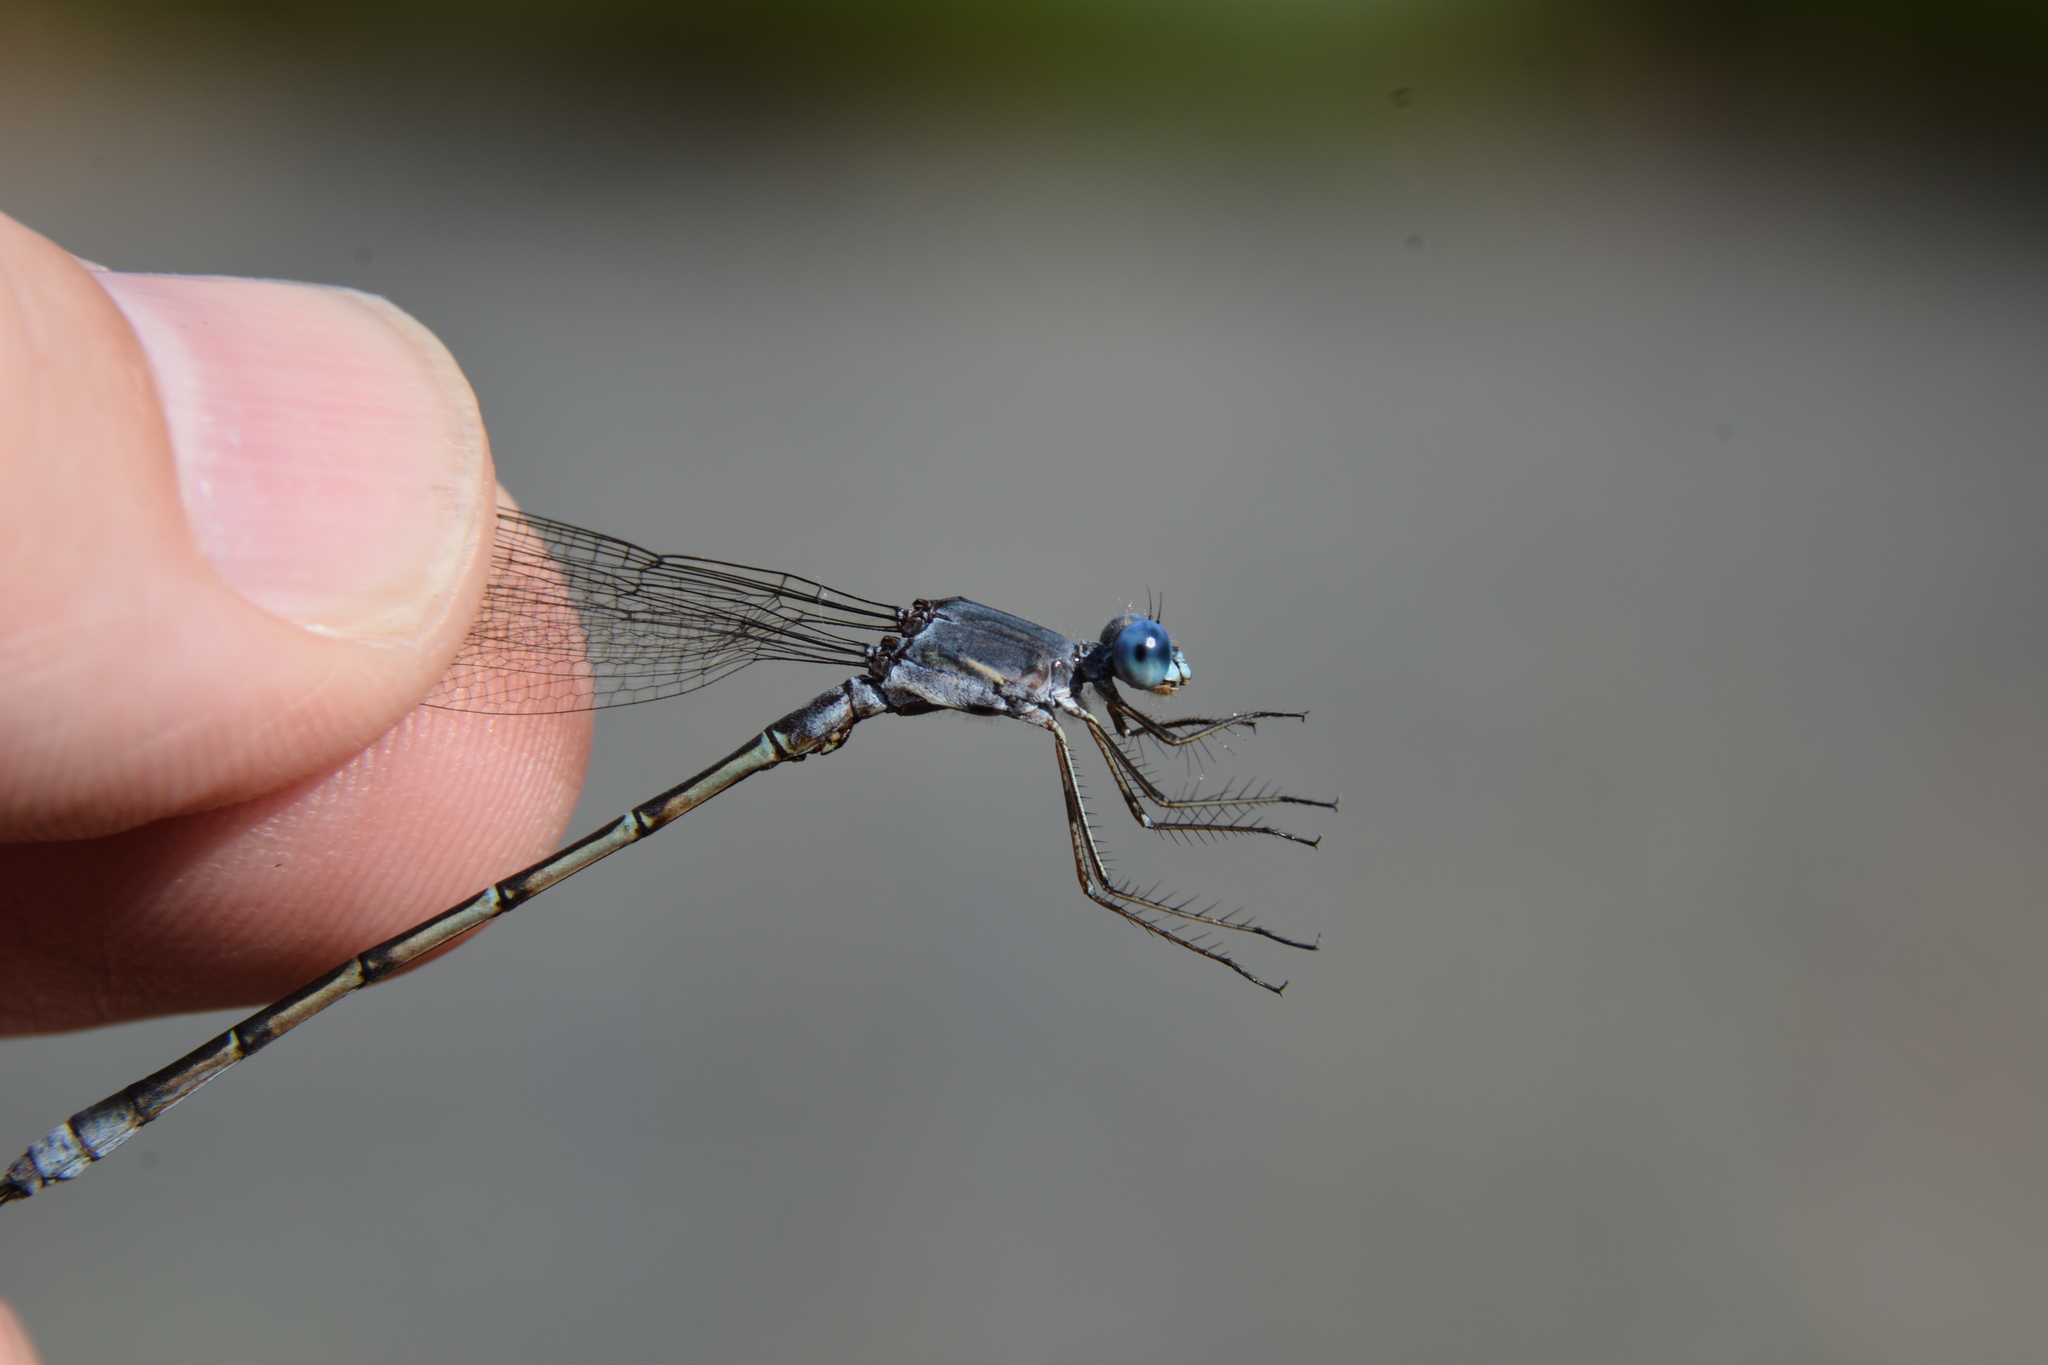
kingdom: Animalia
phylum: Arthropoda
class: Insecta
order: Odonata
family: Lestidae
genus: Lestes
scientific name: Lestes forcipatus
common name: Sweetflag spreadwing
